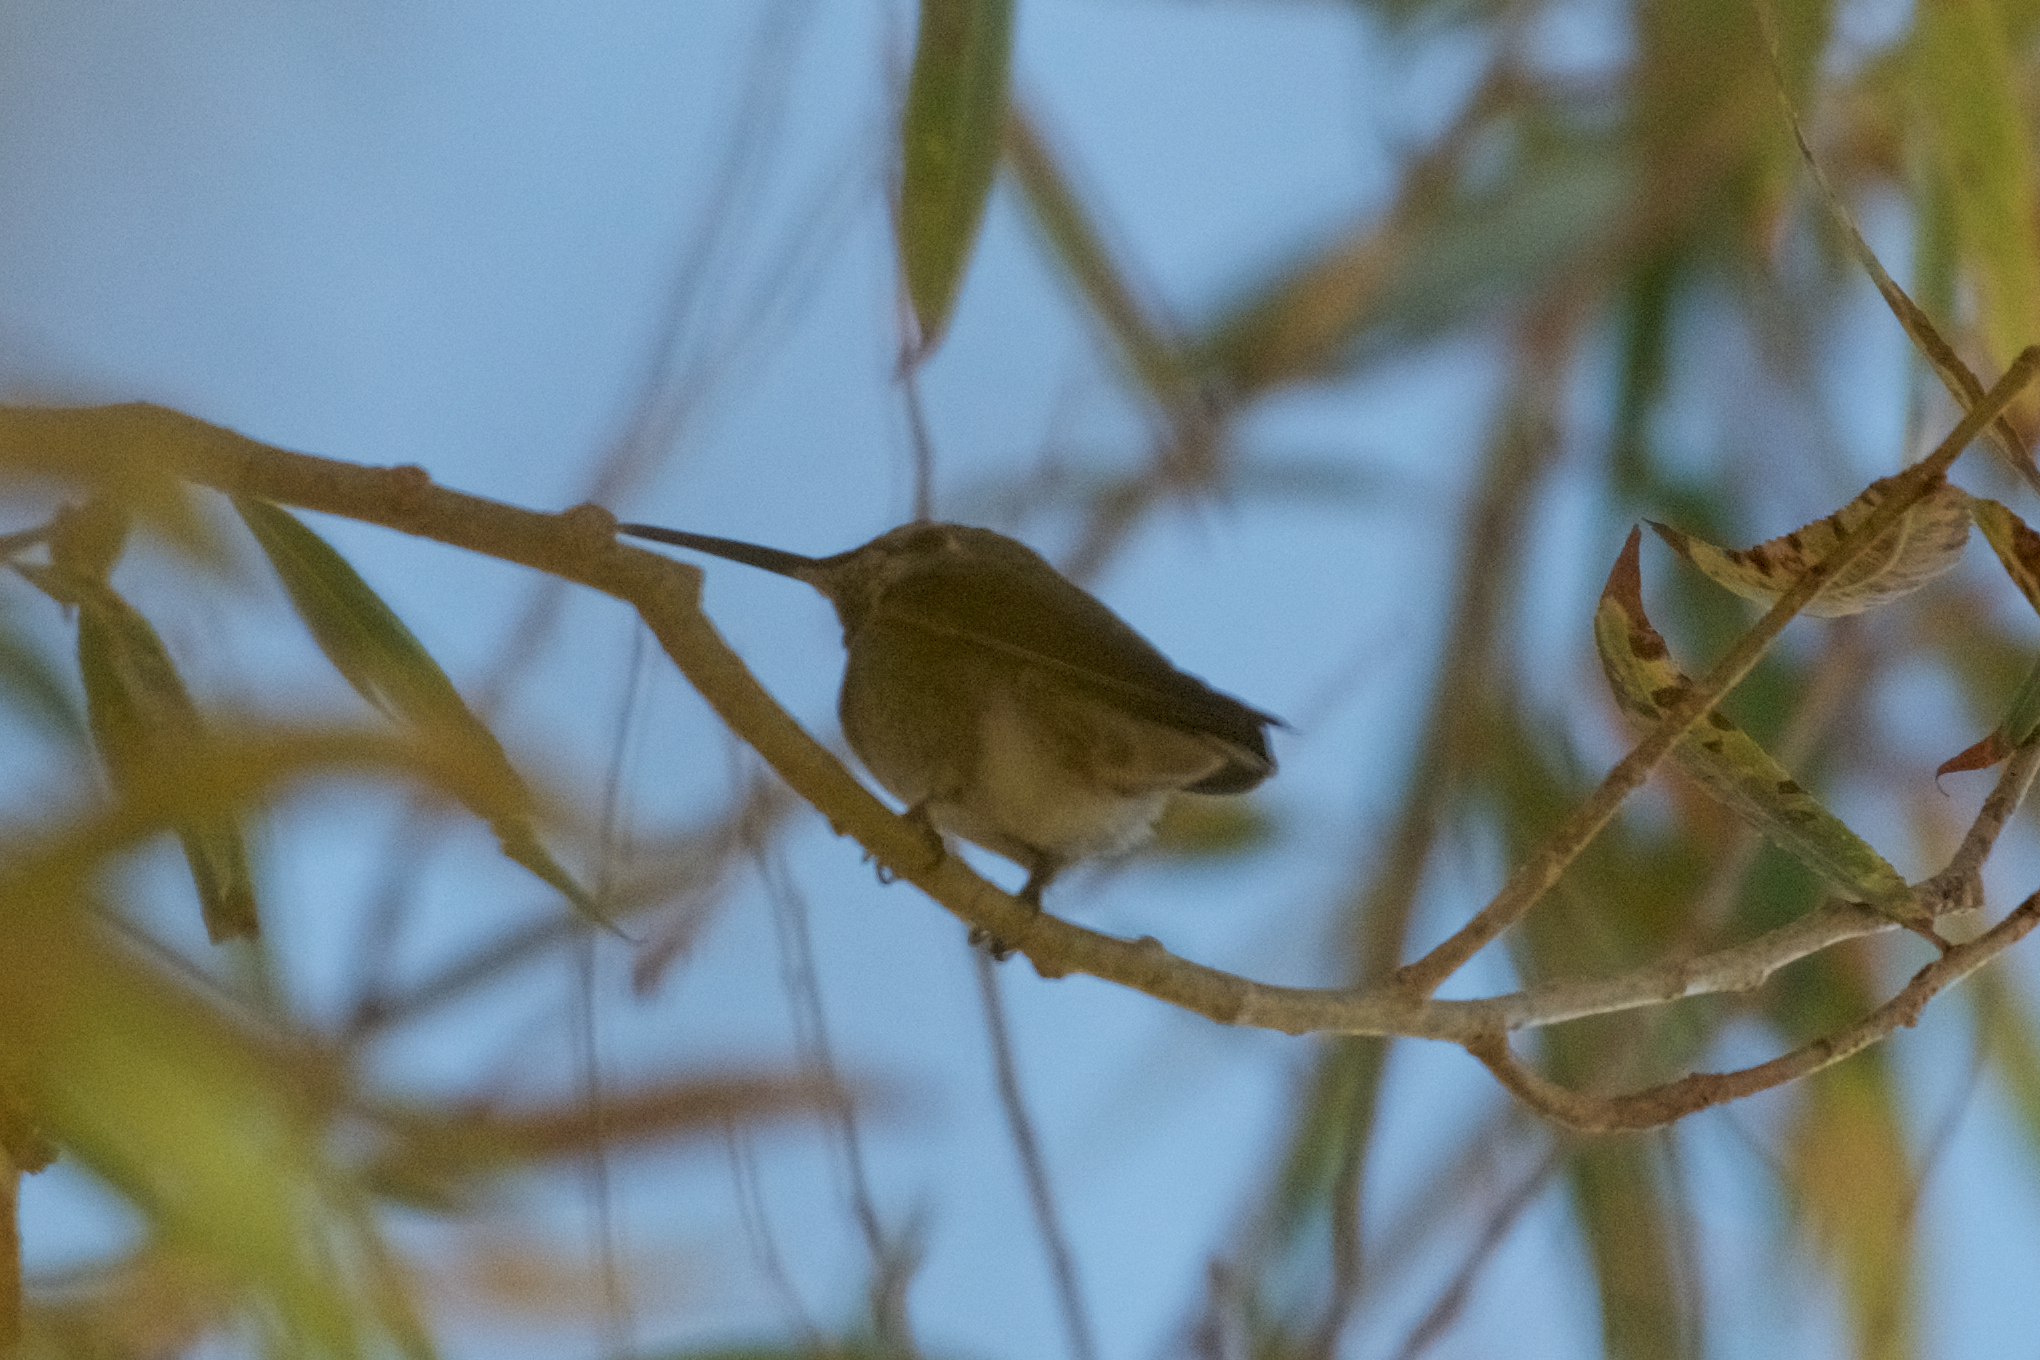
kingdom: Animalia
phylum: Chordata
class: Aves
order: Apodiformes
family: Trochilidae
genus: Calypte
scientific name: Calypte anna
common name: Anna's hummingbird
